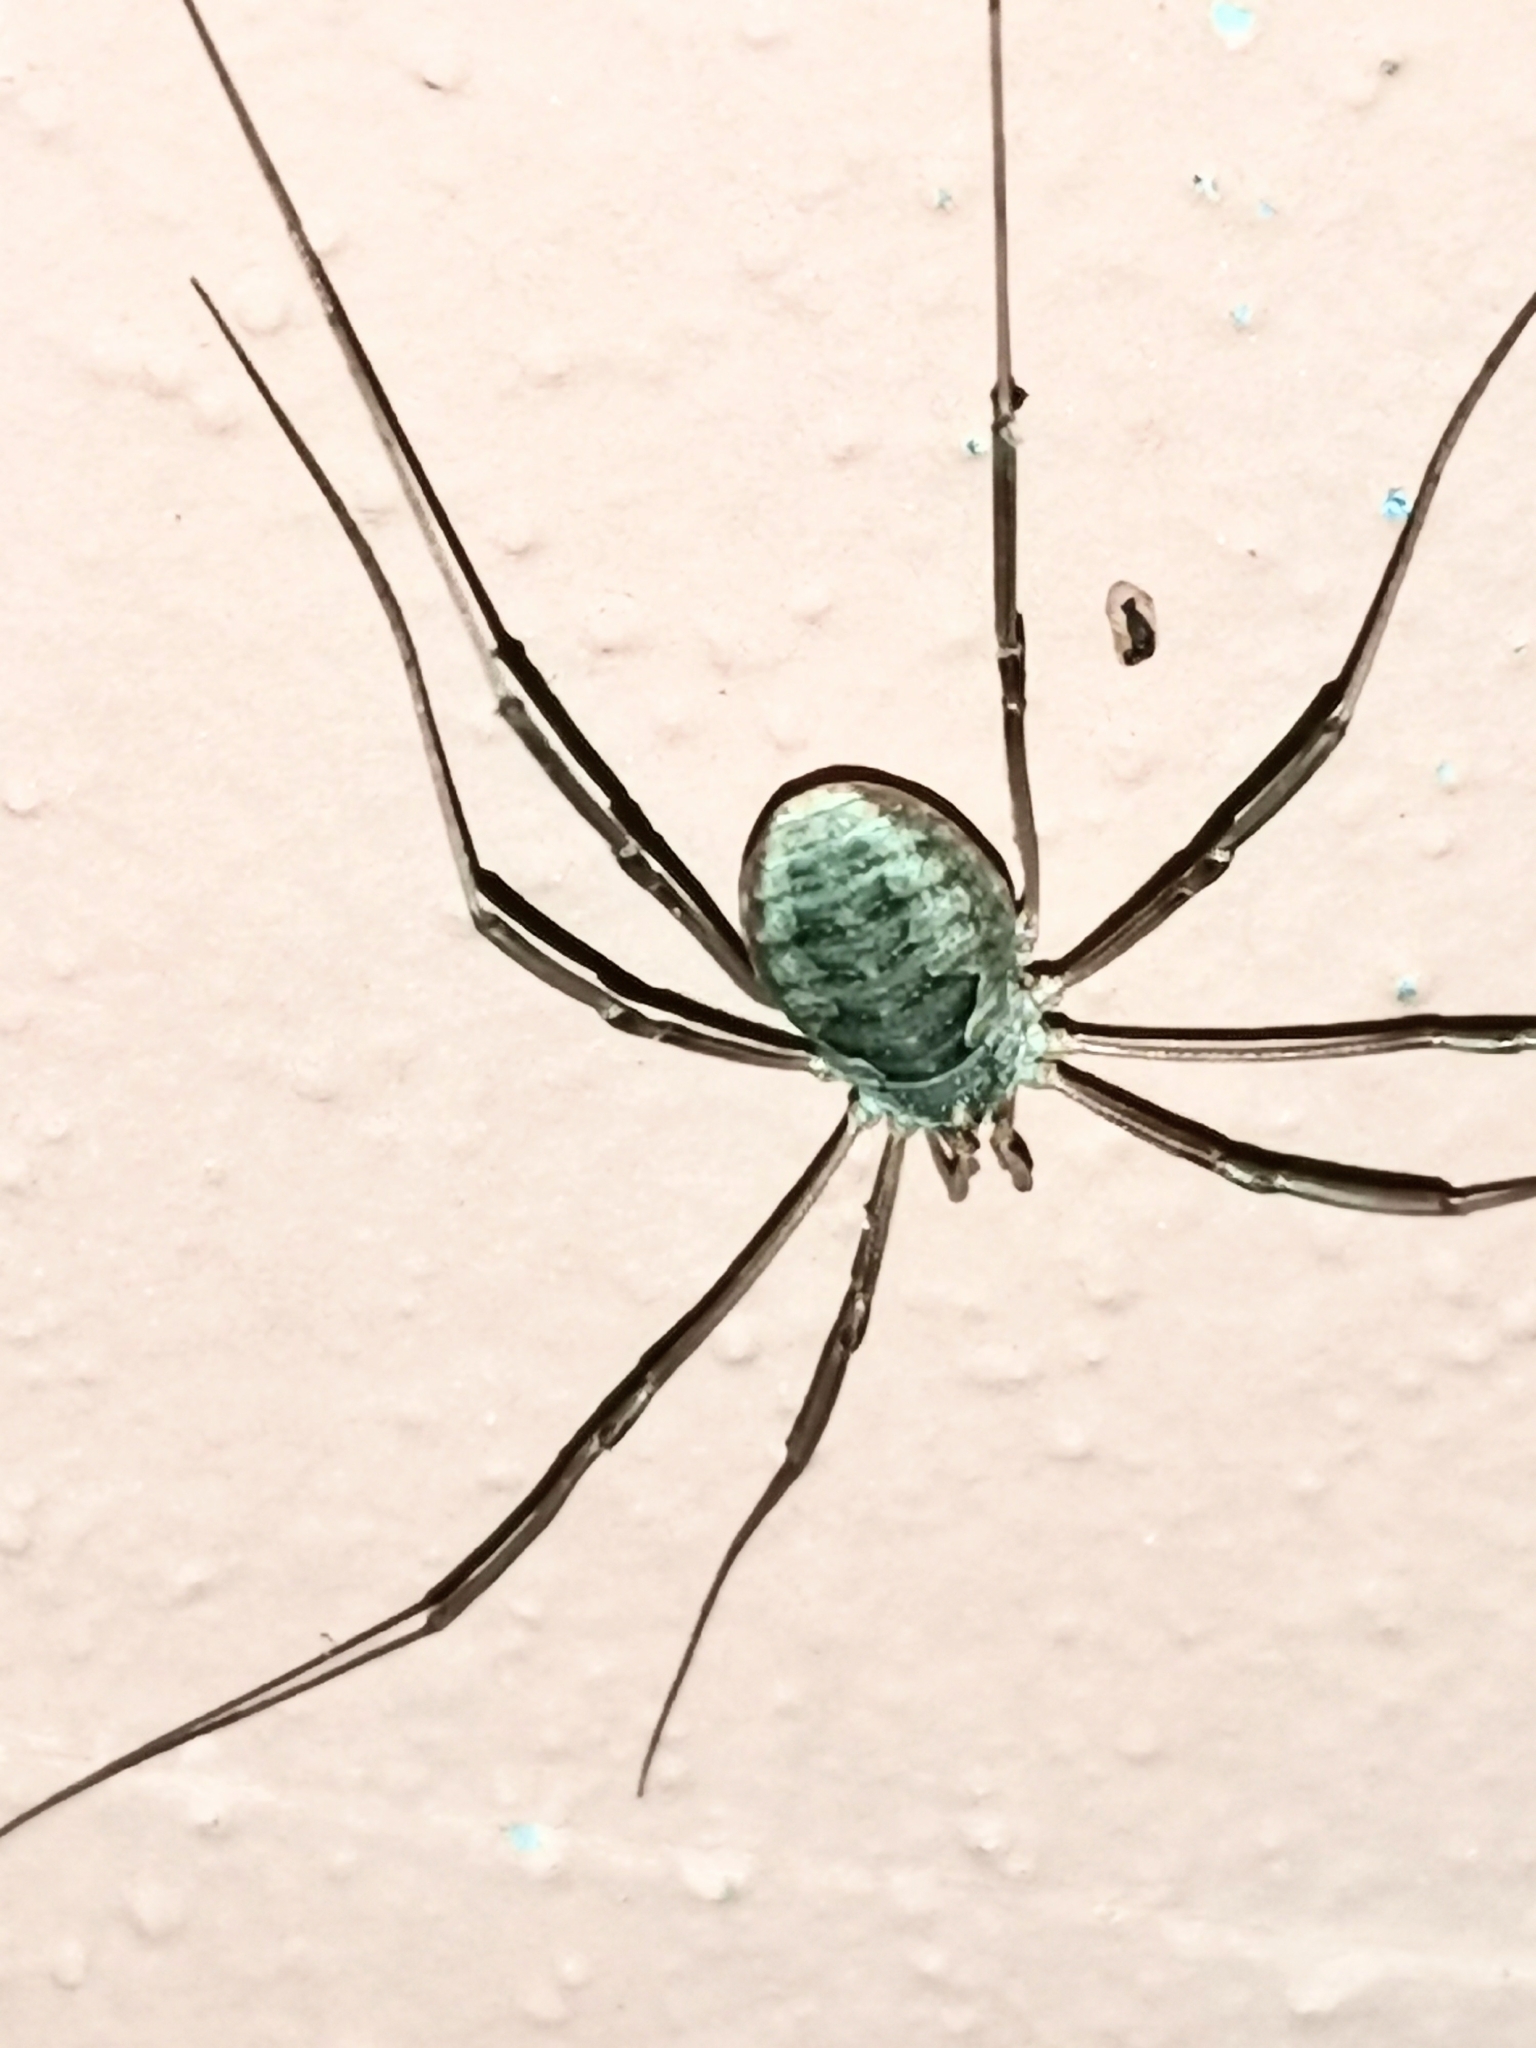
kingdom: Animalia
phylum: Arthropoda
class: Arachnida
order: Opiliones
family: Phalangiidae
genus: Phalangium
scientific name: Phalangium opilio
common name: Daddy longleg
